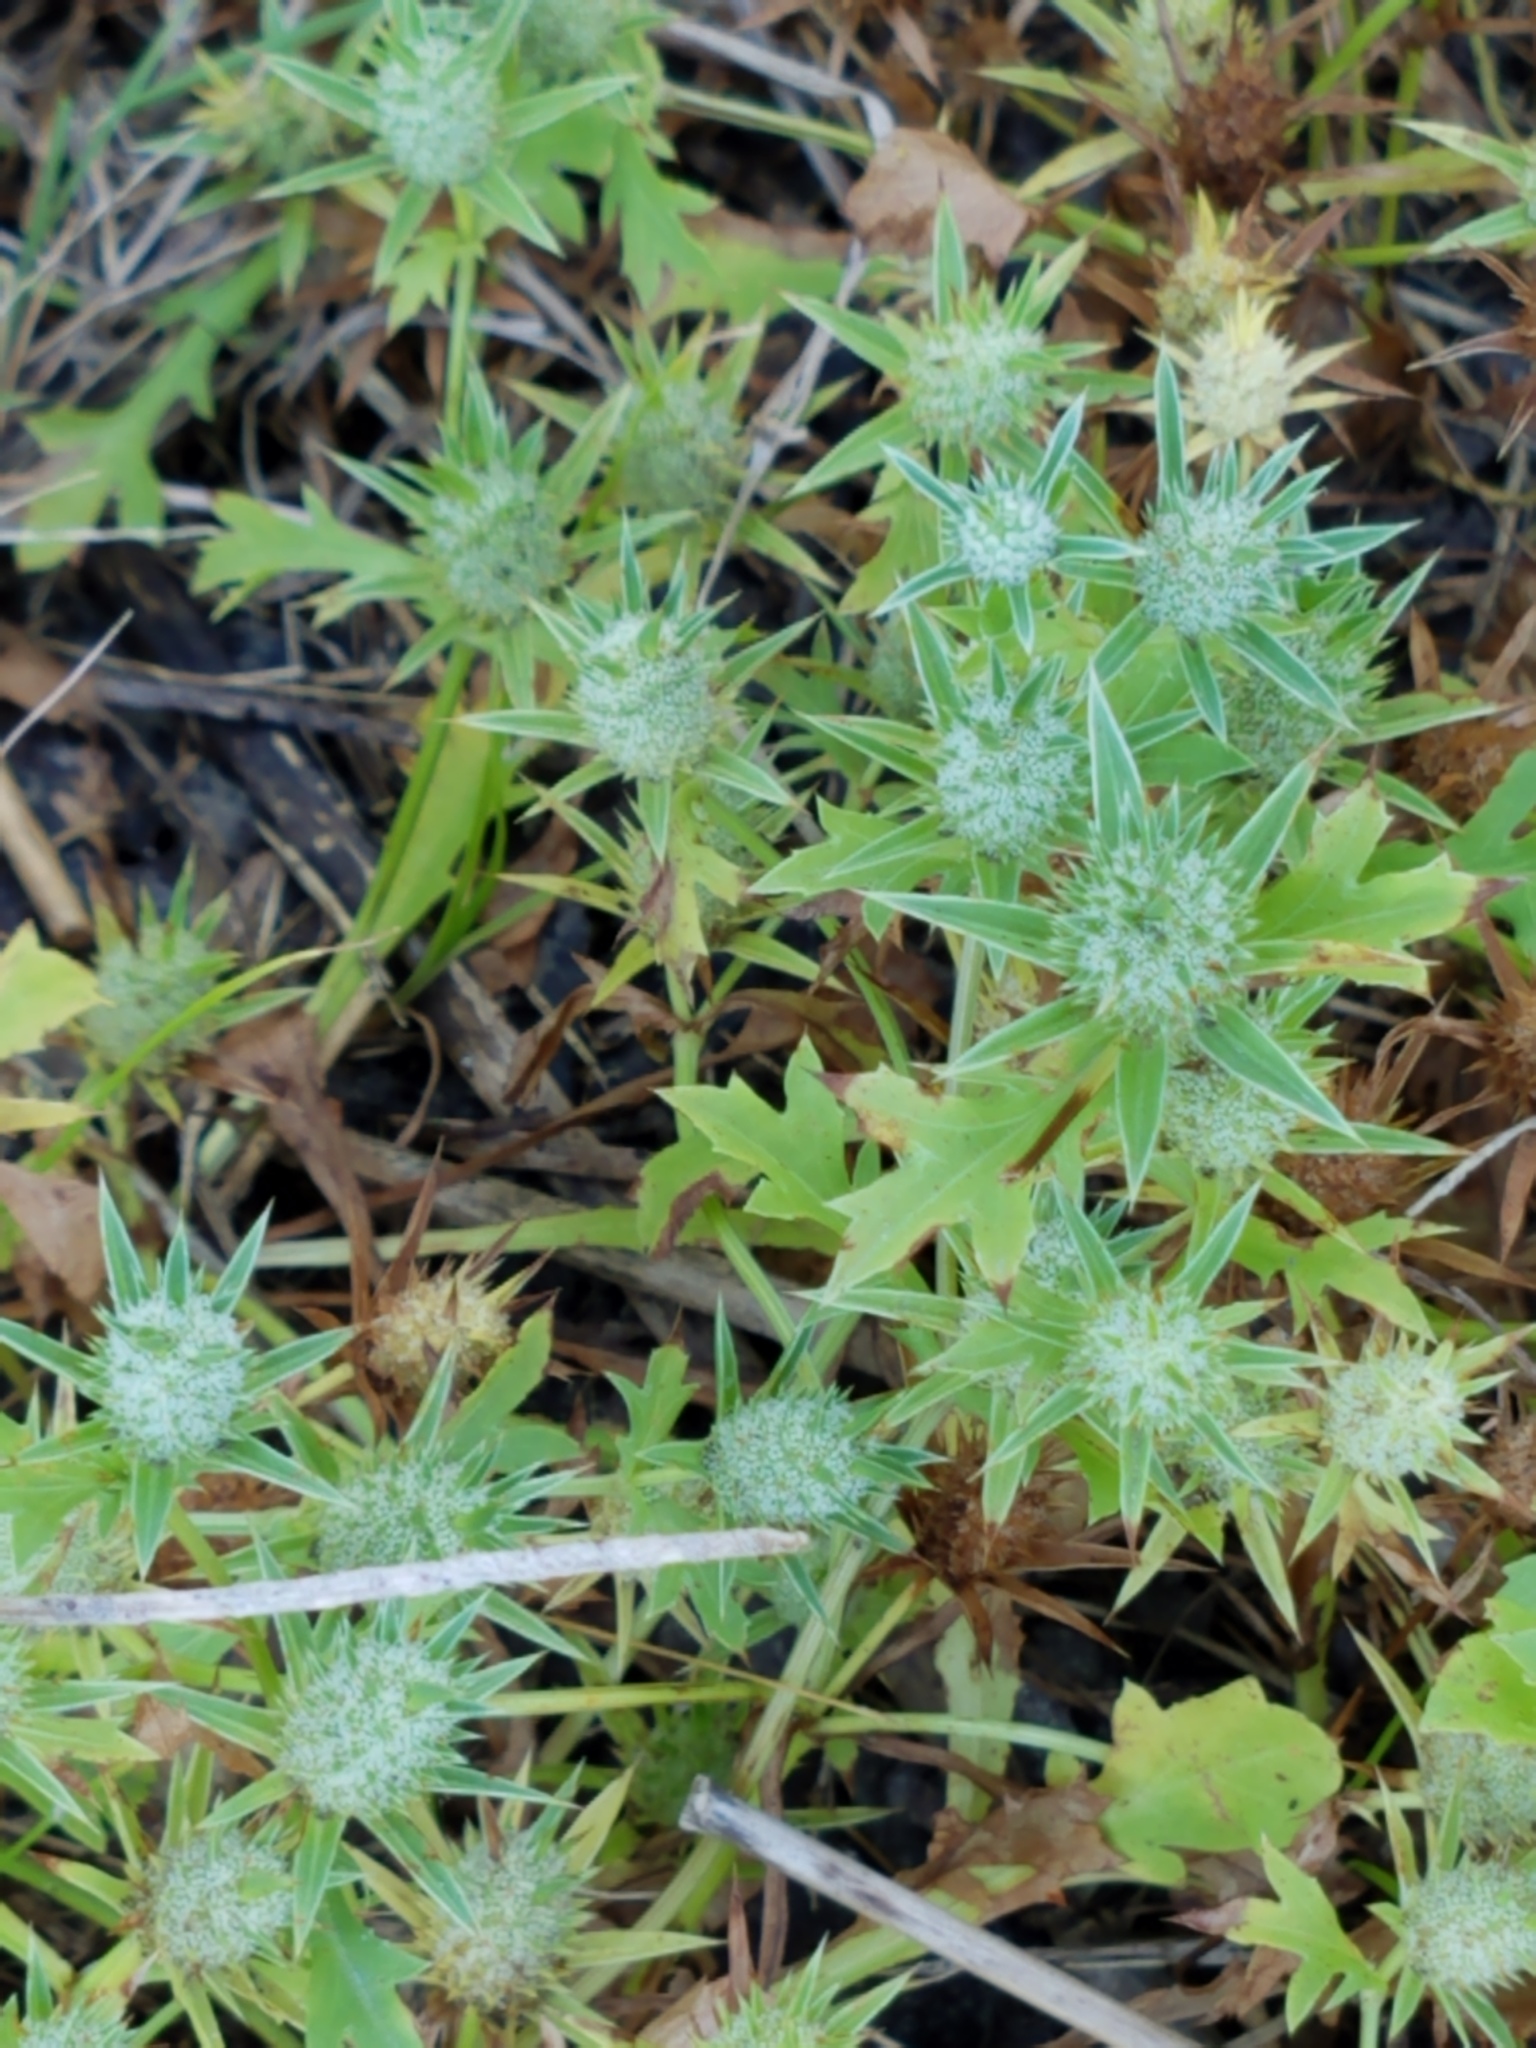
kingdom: Plantae
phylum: Tracheophyta
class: Magnoliopsida
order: Apiales
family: Apiaceae
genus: Eryngium
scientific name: Eryngium nasturtiifolium
